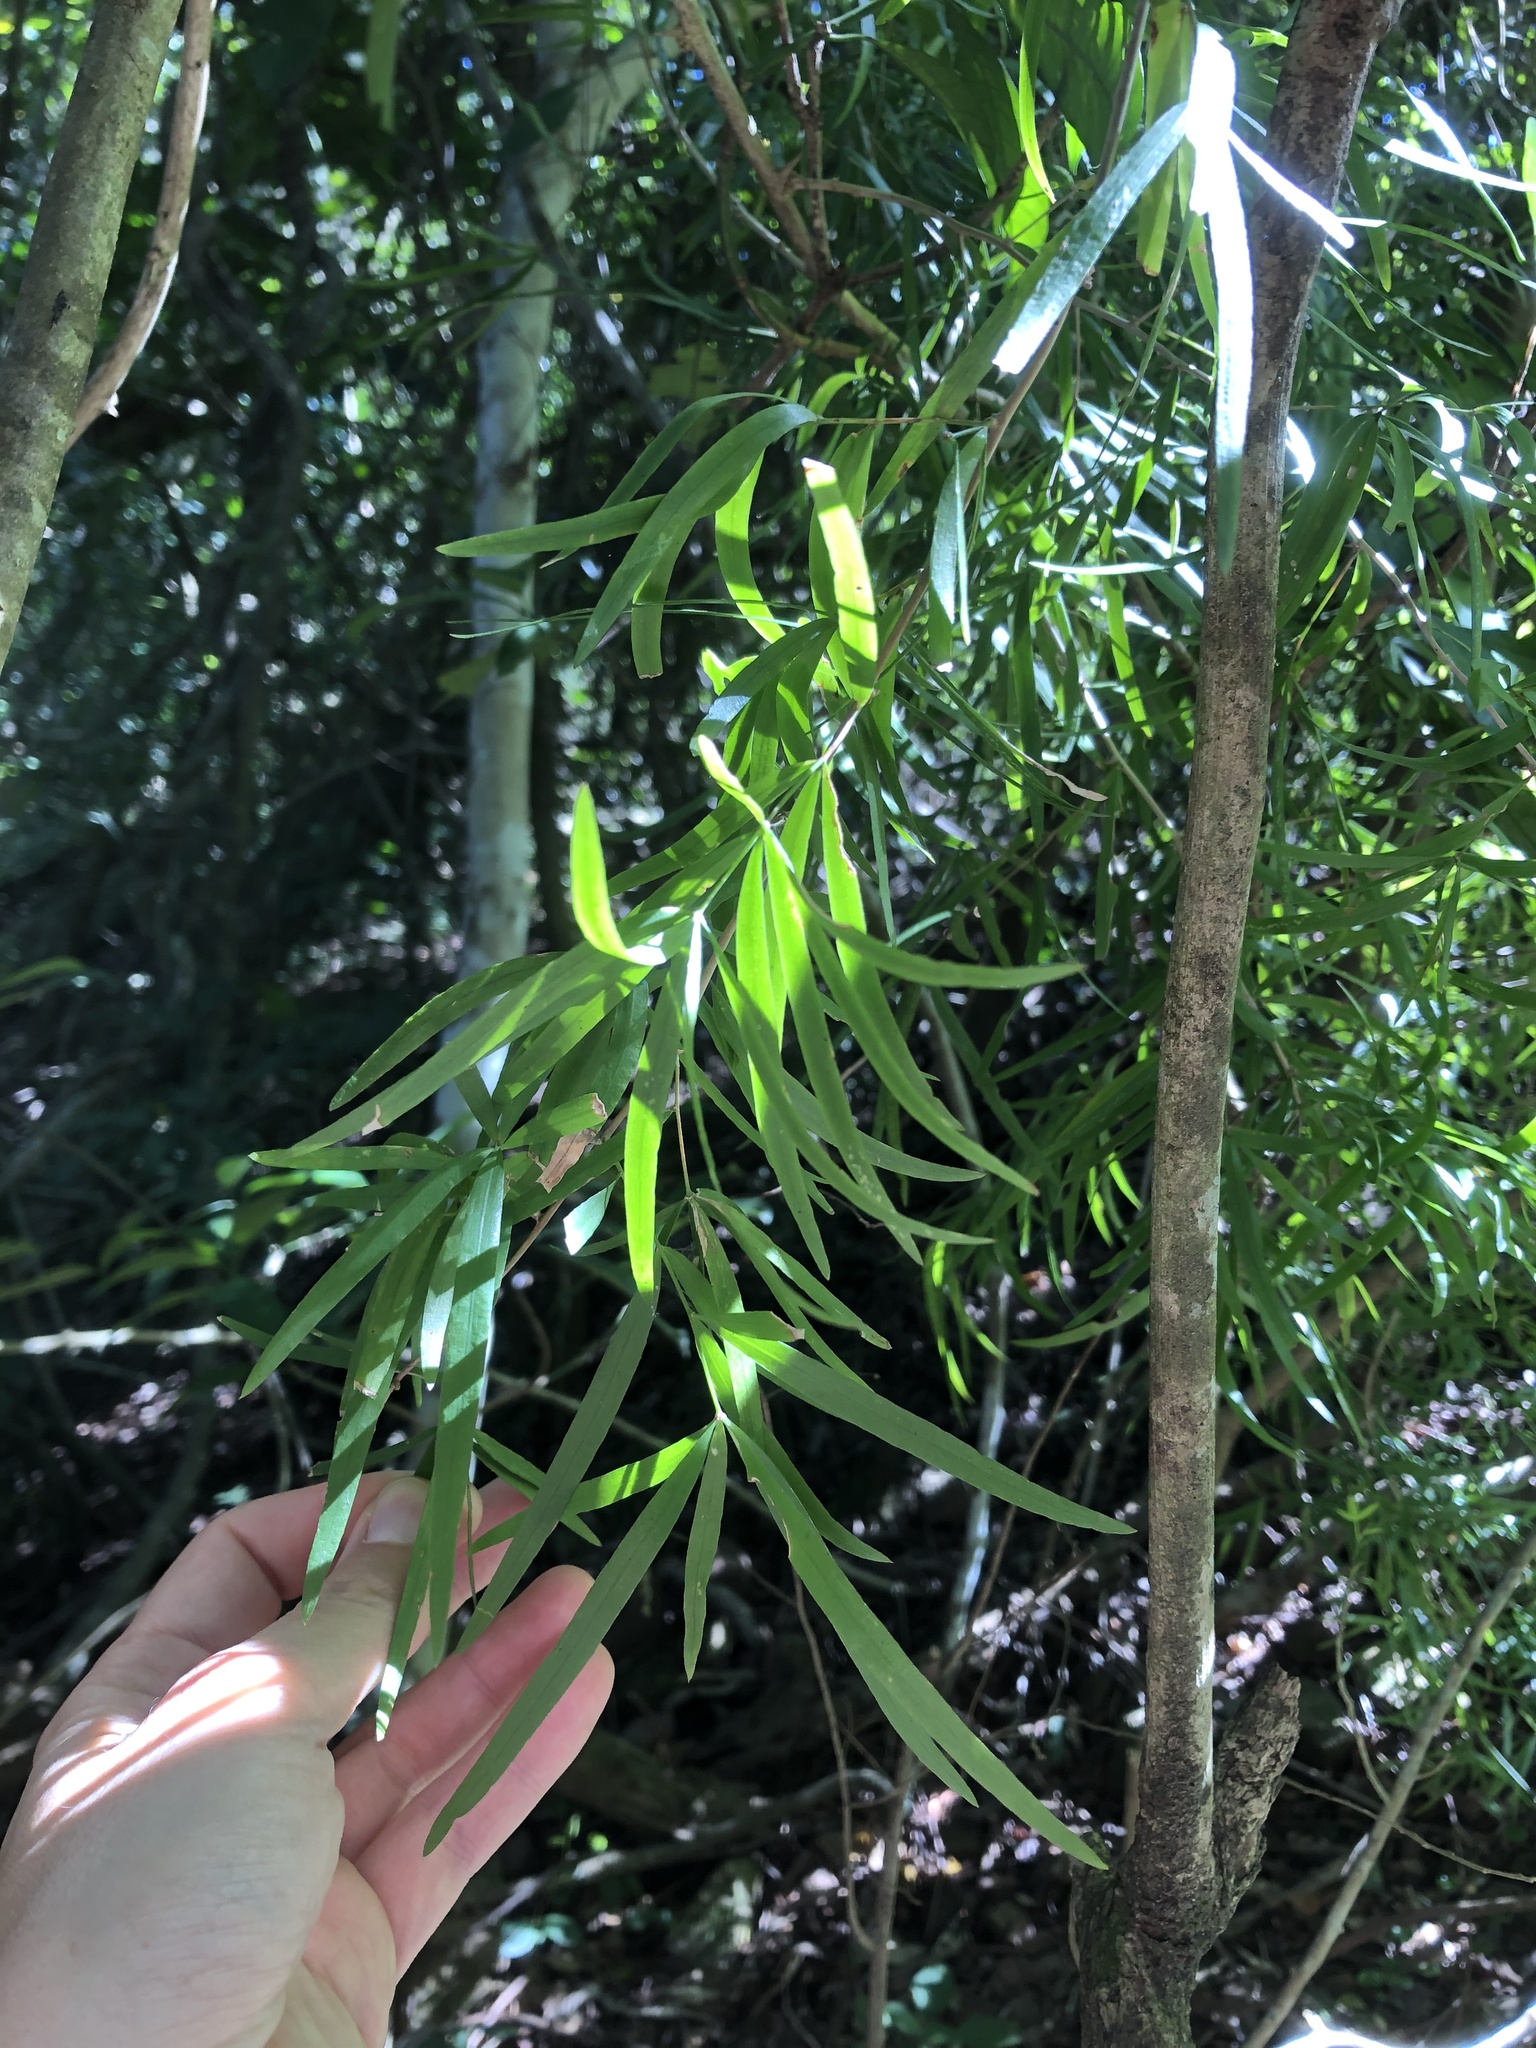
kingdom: Plantae
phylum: Tracheophyta
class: Liliopsida
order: Asparagales
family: Asparagaceae
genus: Asparagus
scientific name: Asparagus falcatus
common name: Asparagus
